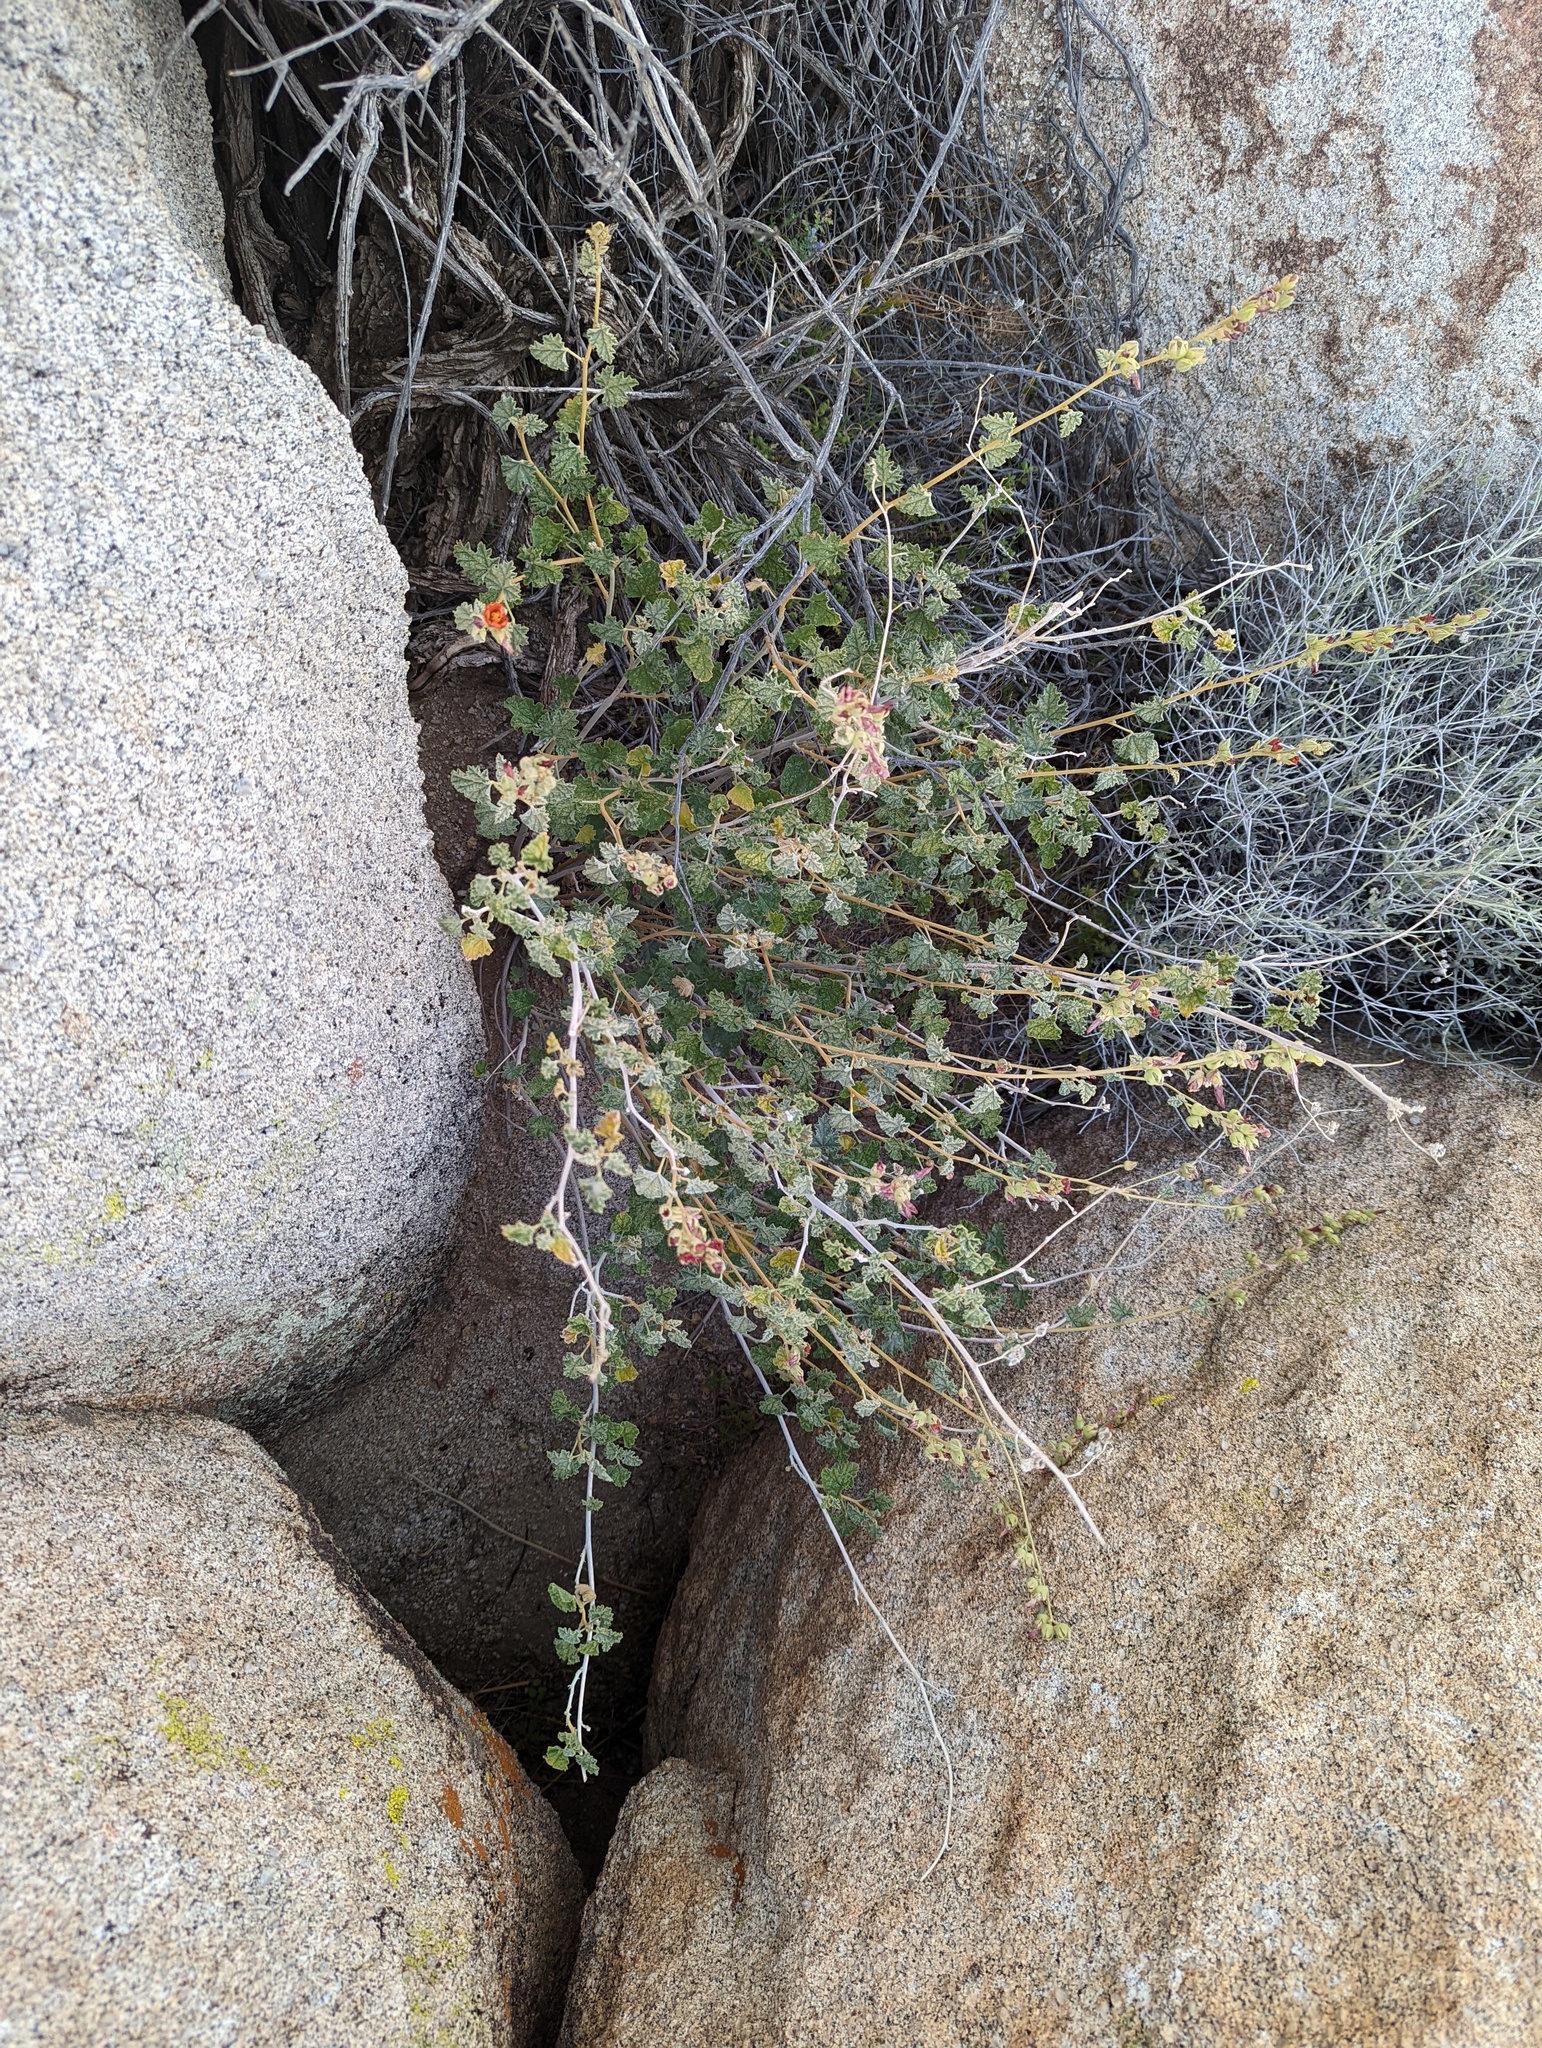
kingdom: Plantae
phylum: Tracheophyta
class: Magnoliopsida
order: Malvales
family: Malvaceae
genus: Sphaeralcea
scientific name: Sphaeralcea ambigua
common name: Apricot globe-mallow
